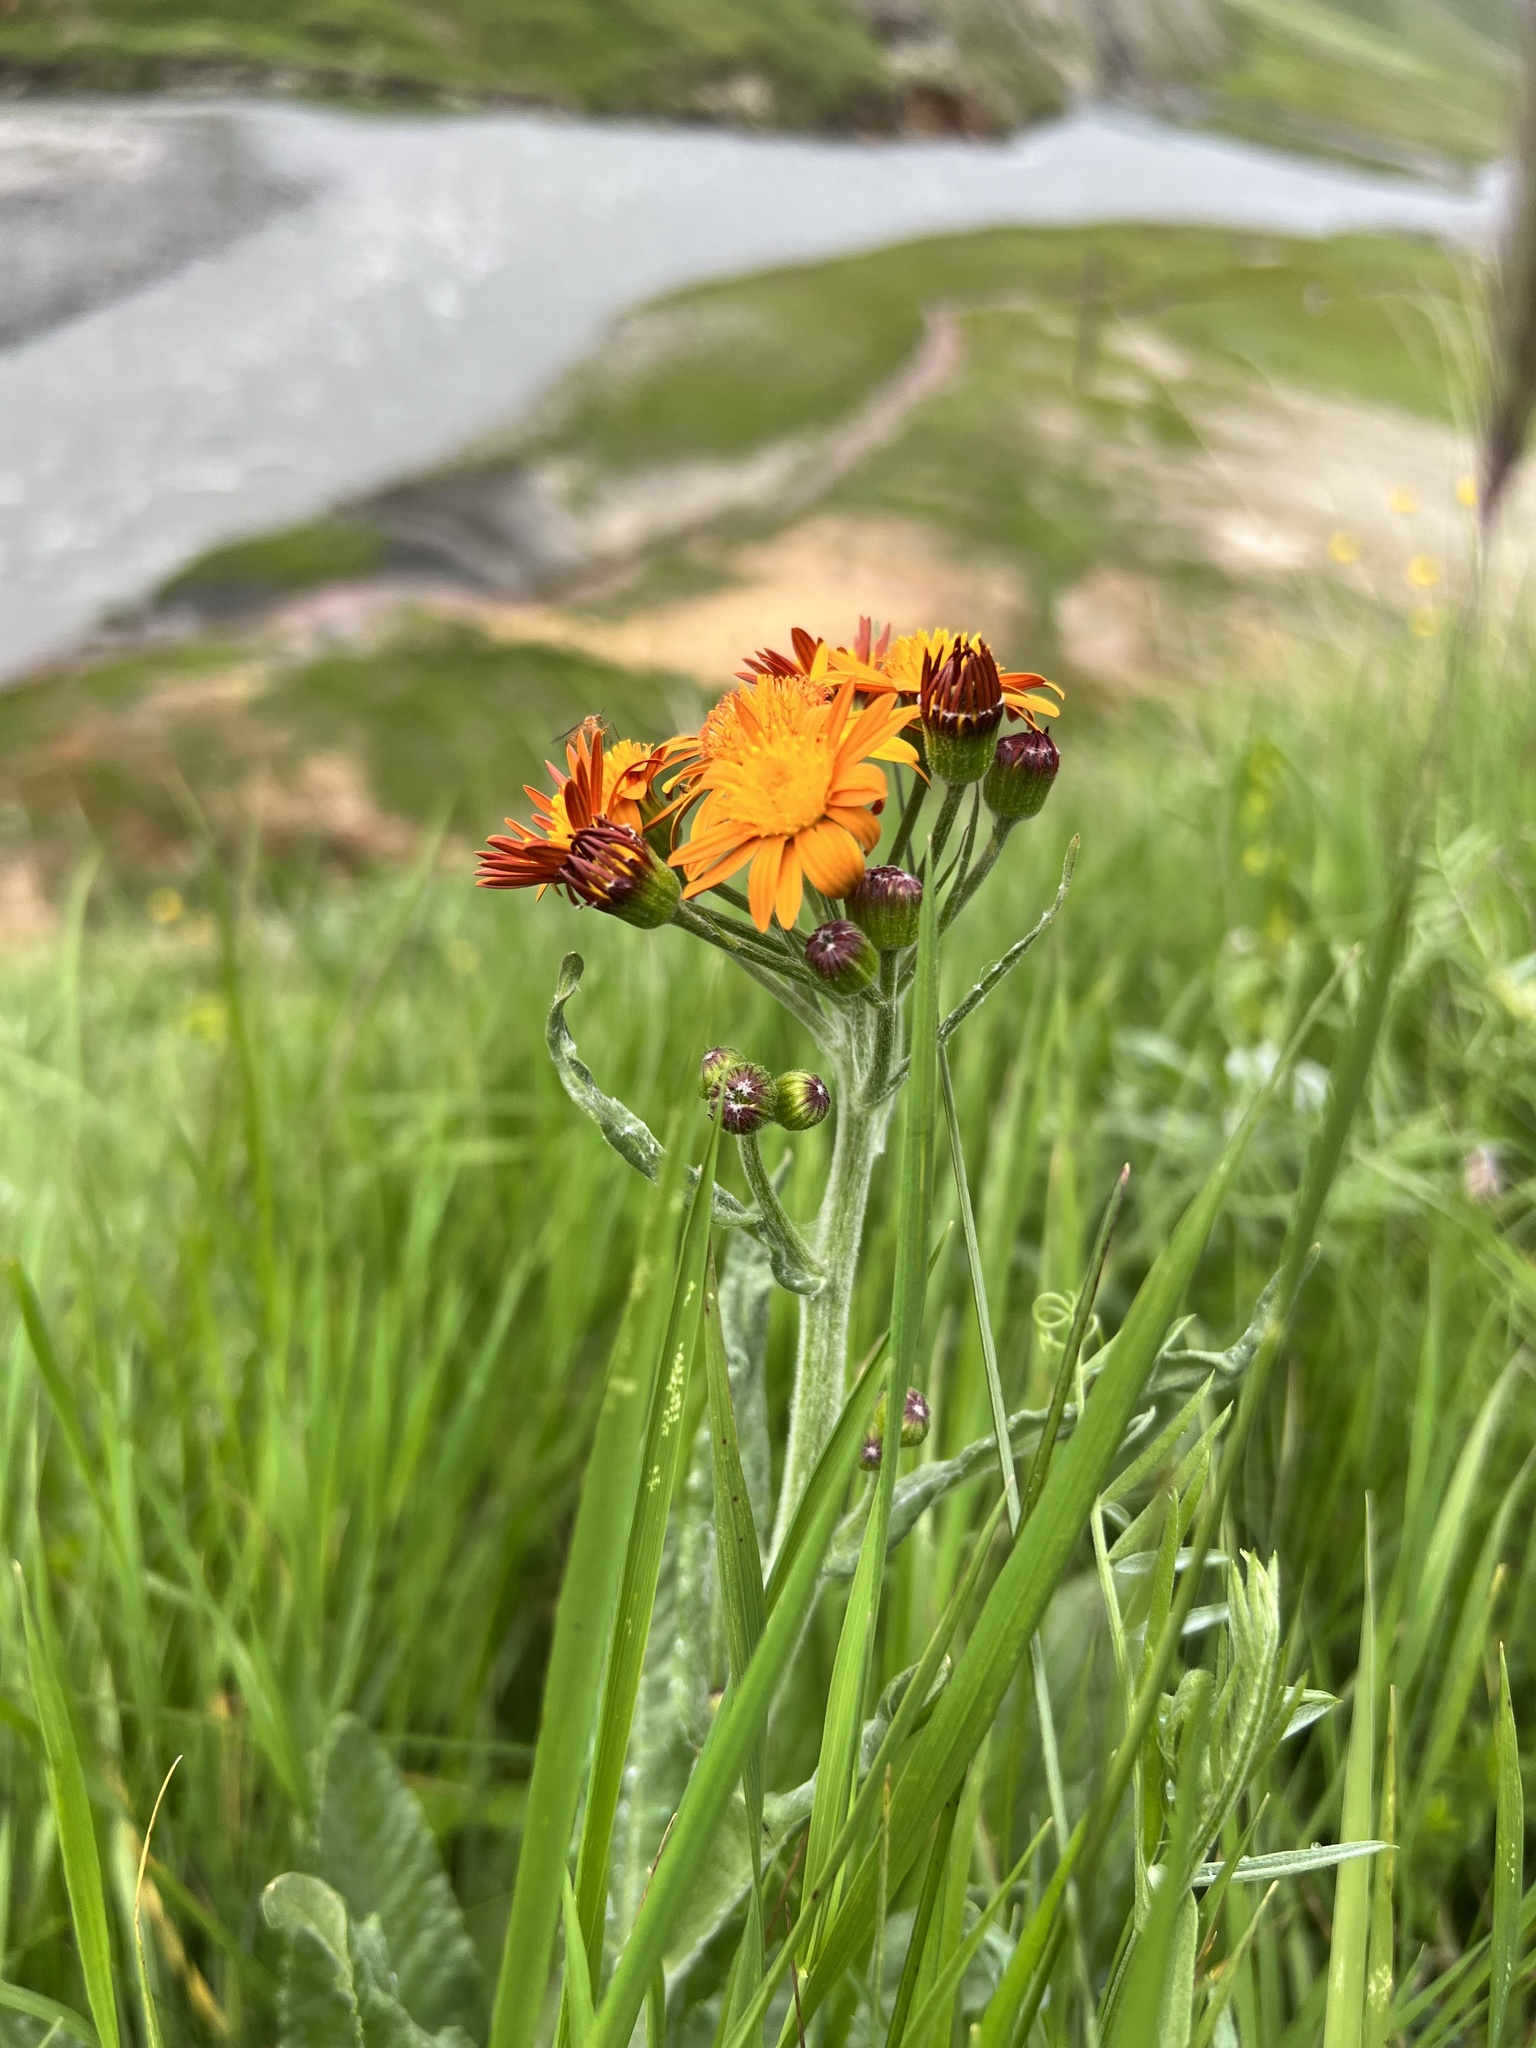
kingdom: Plantae
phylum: Tracheophyta
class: Magnoliopsida
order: Asterales
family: Asteraceae
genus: Pilosella
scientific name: Pilosella aurantiaca
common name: Fox-and-cubs
